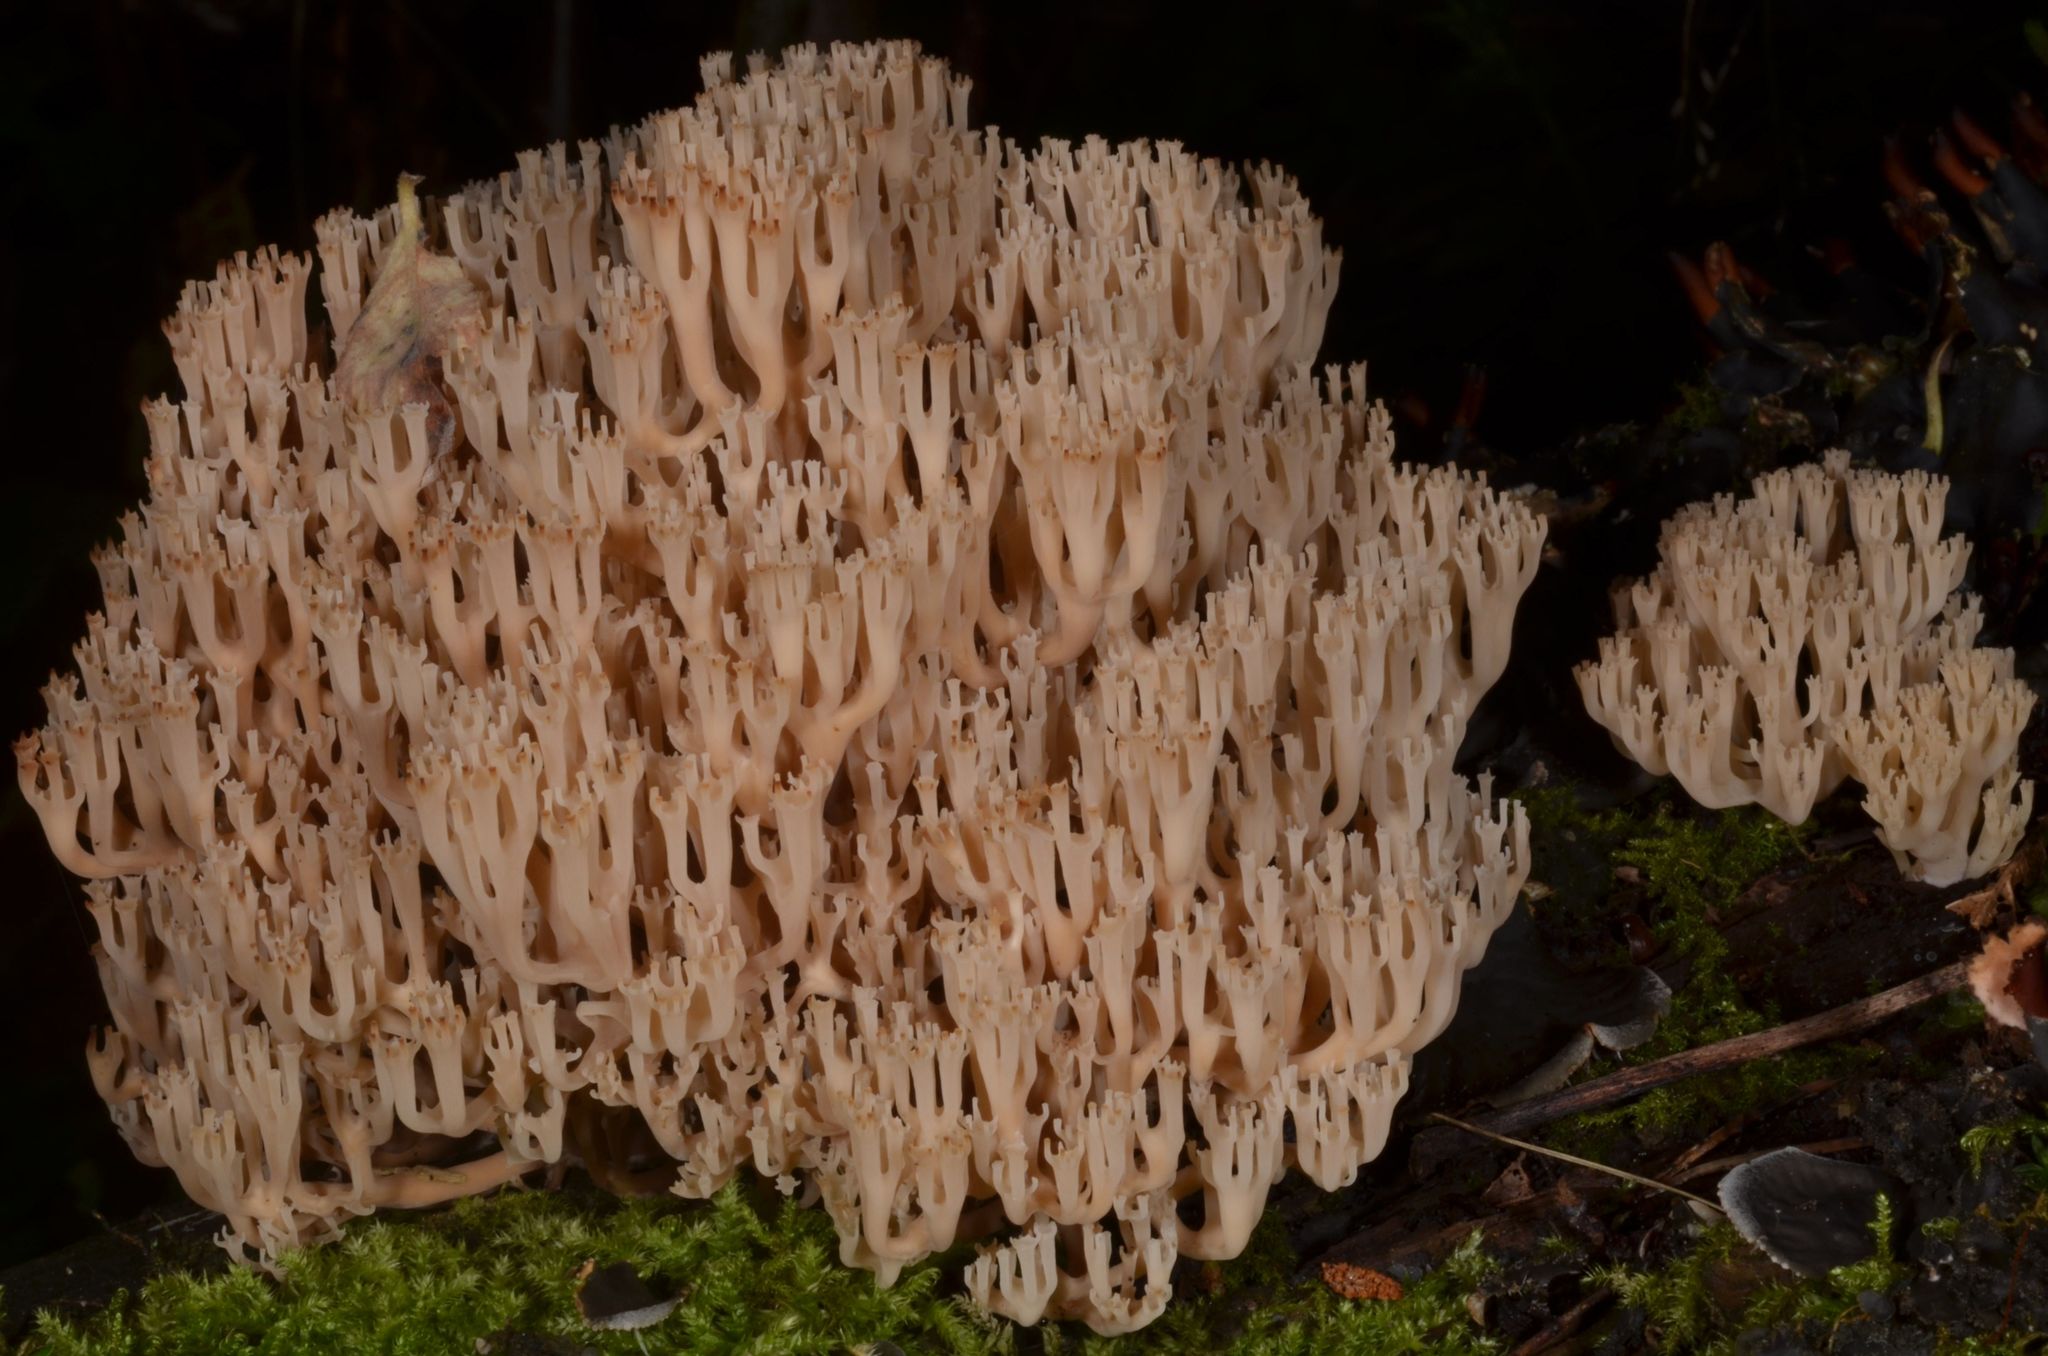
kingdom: Fungi
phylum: Basidiomycota
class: Agaricomycetes
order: Russulales
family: Auriscalpiaceae
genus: Artomyces
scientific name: Artomyces pyxidatus
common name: Crown-tipped coral fungus
